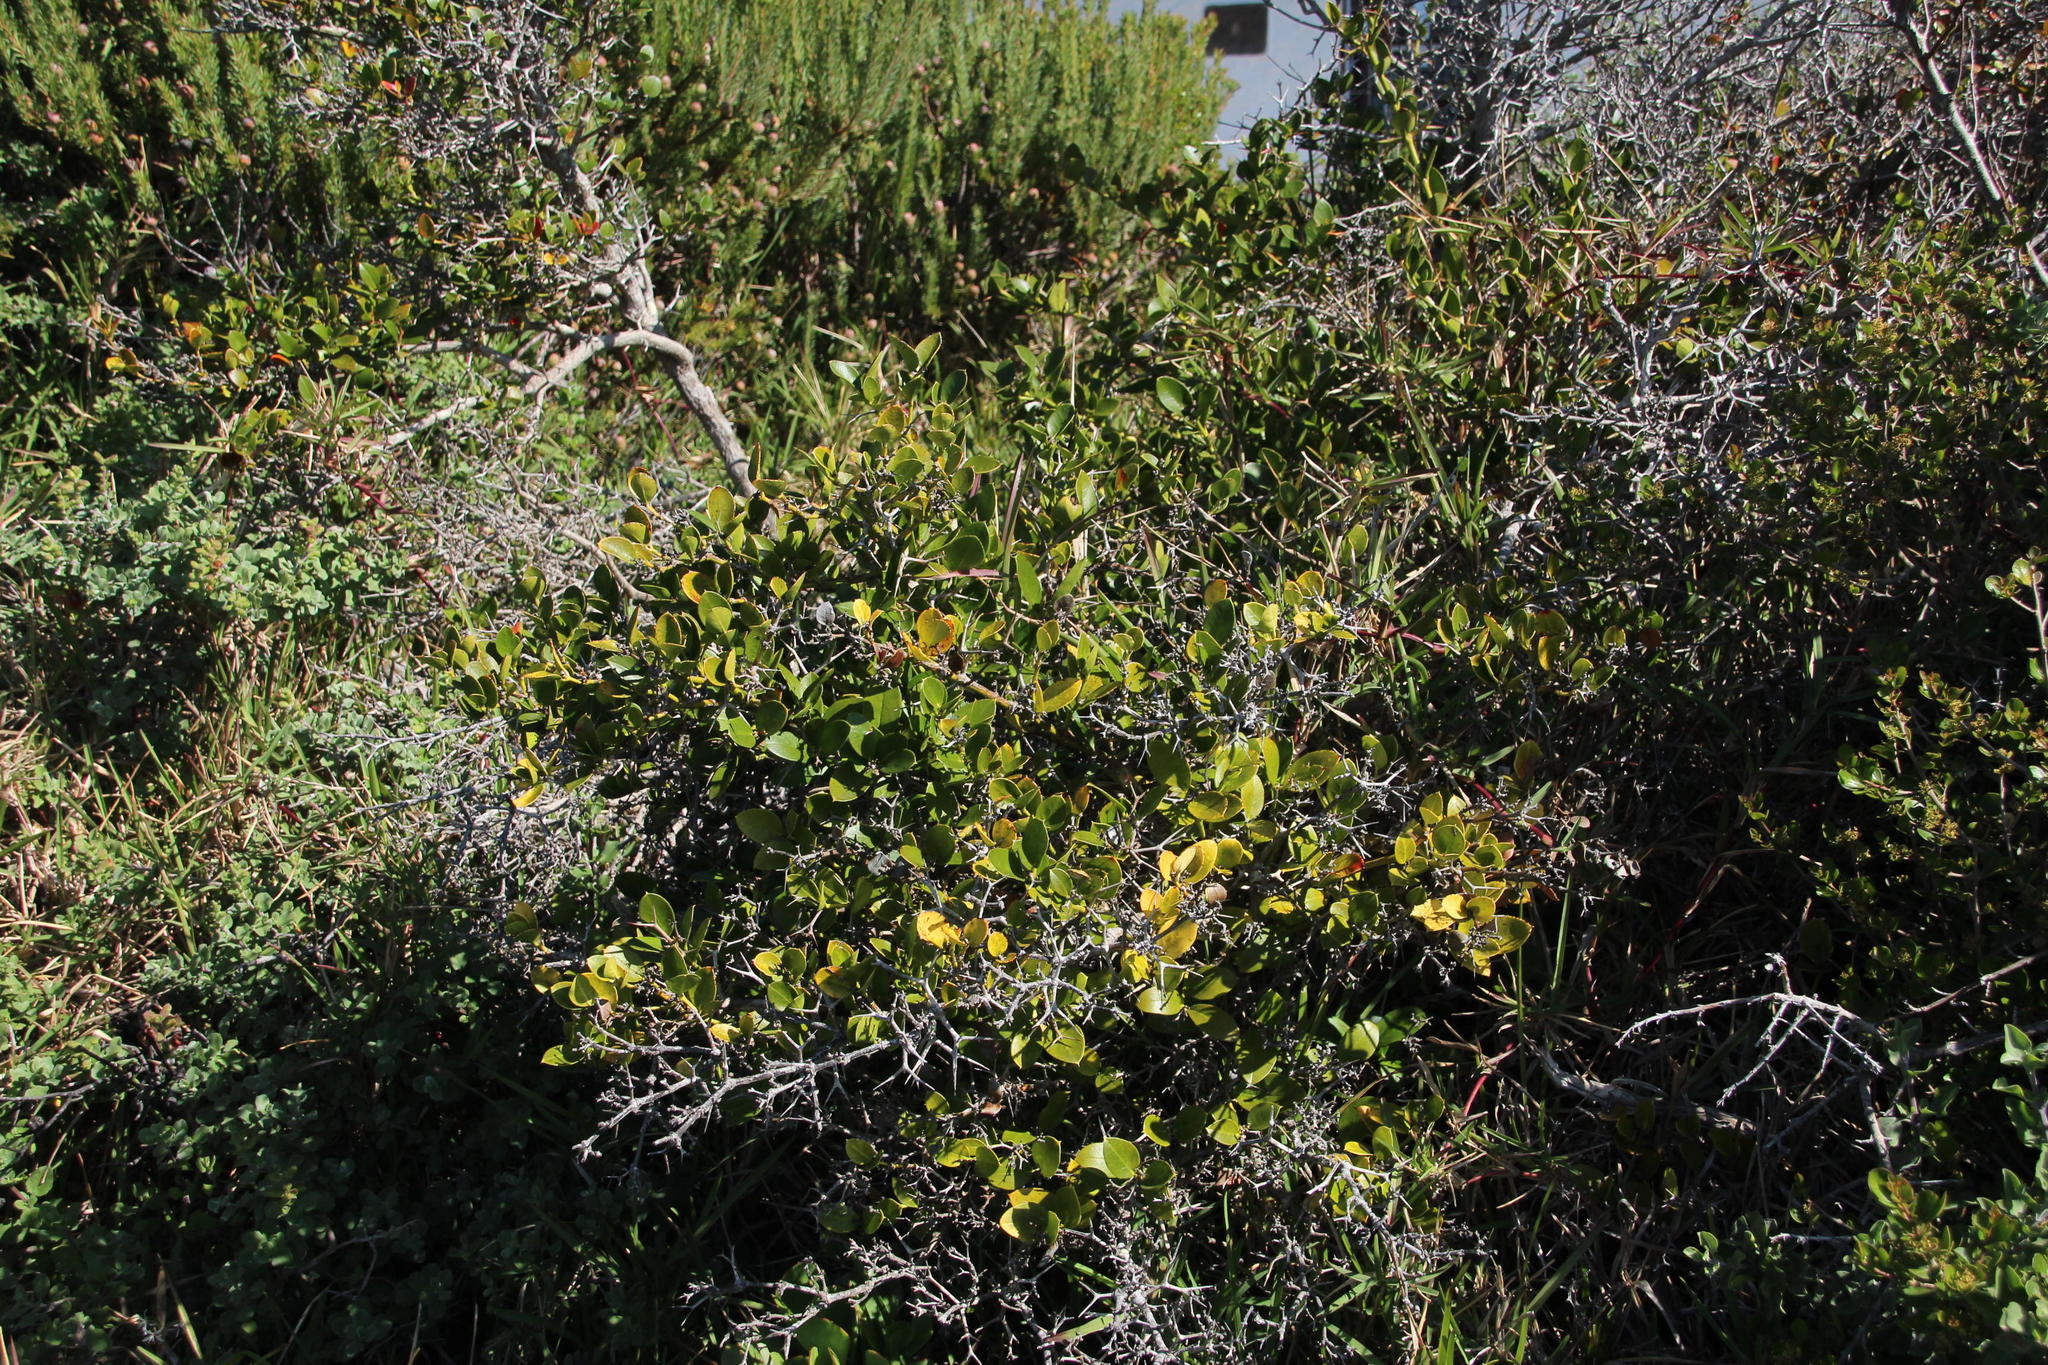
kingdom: Plantae
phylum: Tracheophyta
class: Magnoliopsida
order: Gentianales
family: Apocynaceae
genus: Carissa
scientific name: Carissa macrocarpa
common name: Natal plum
